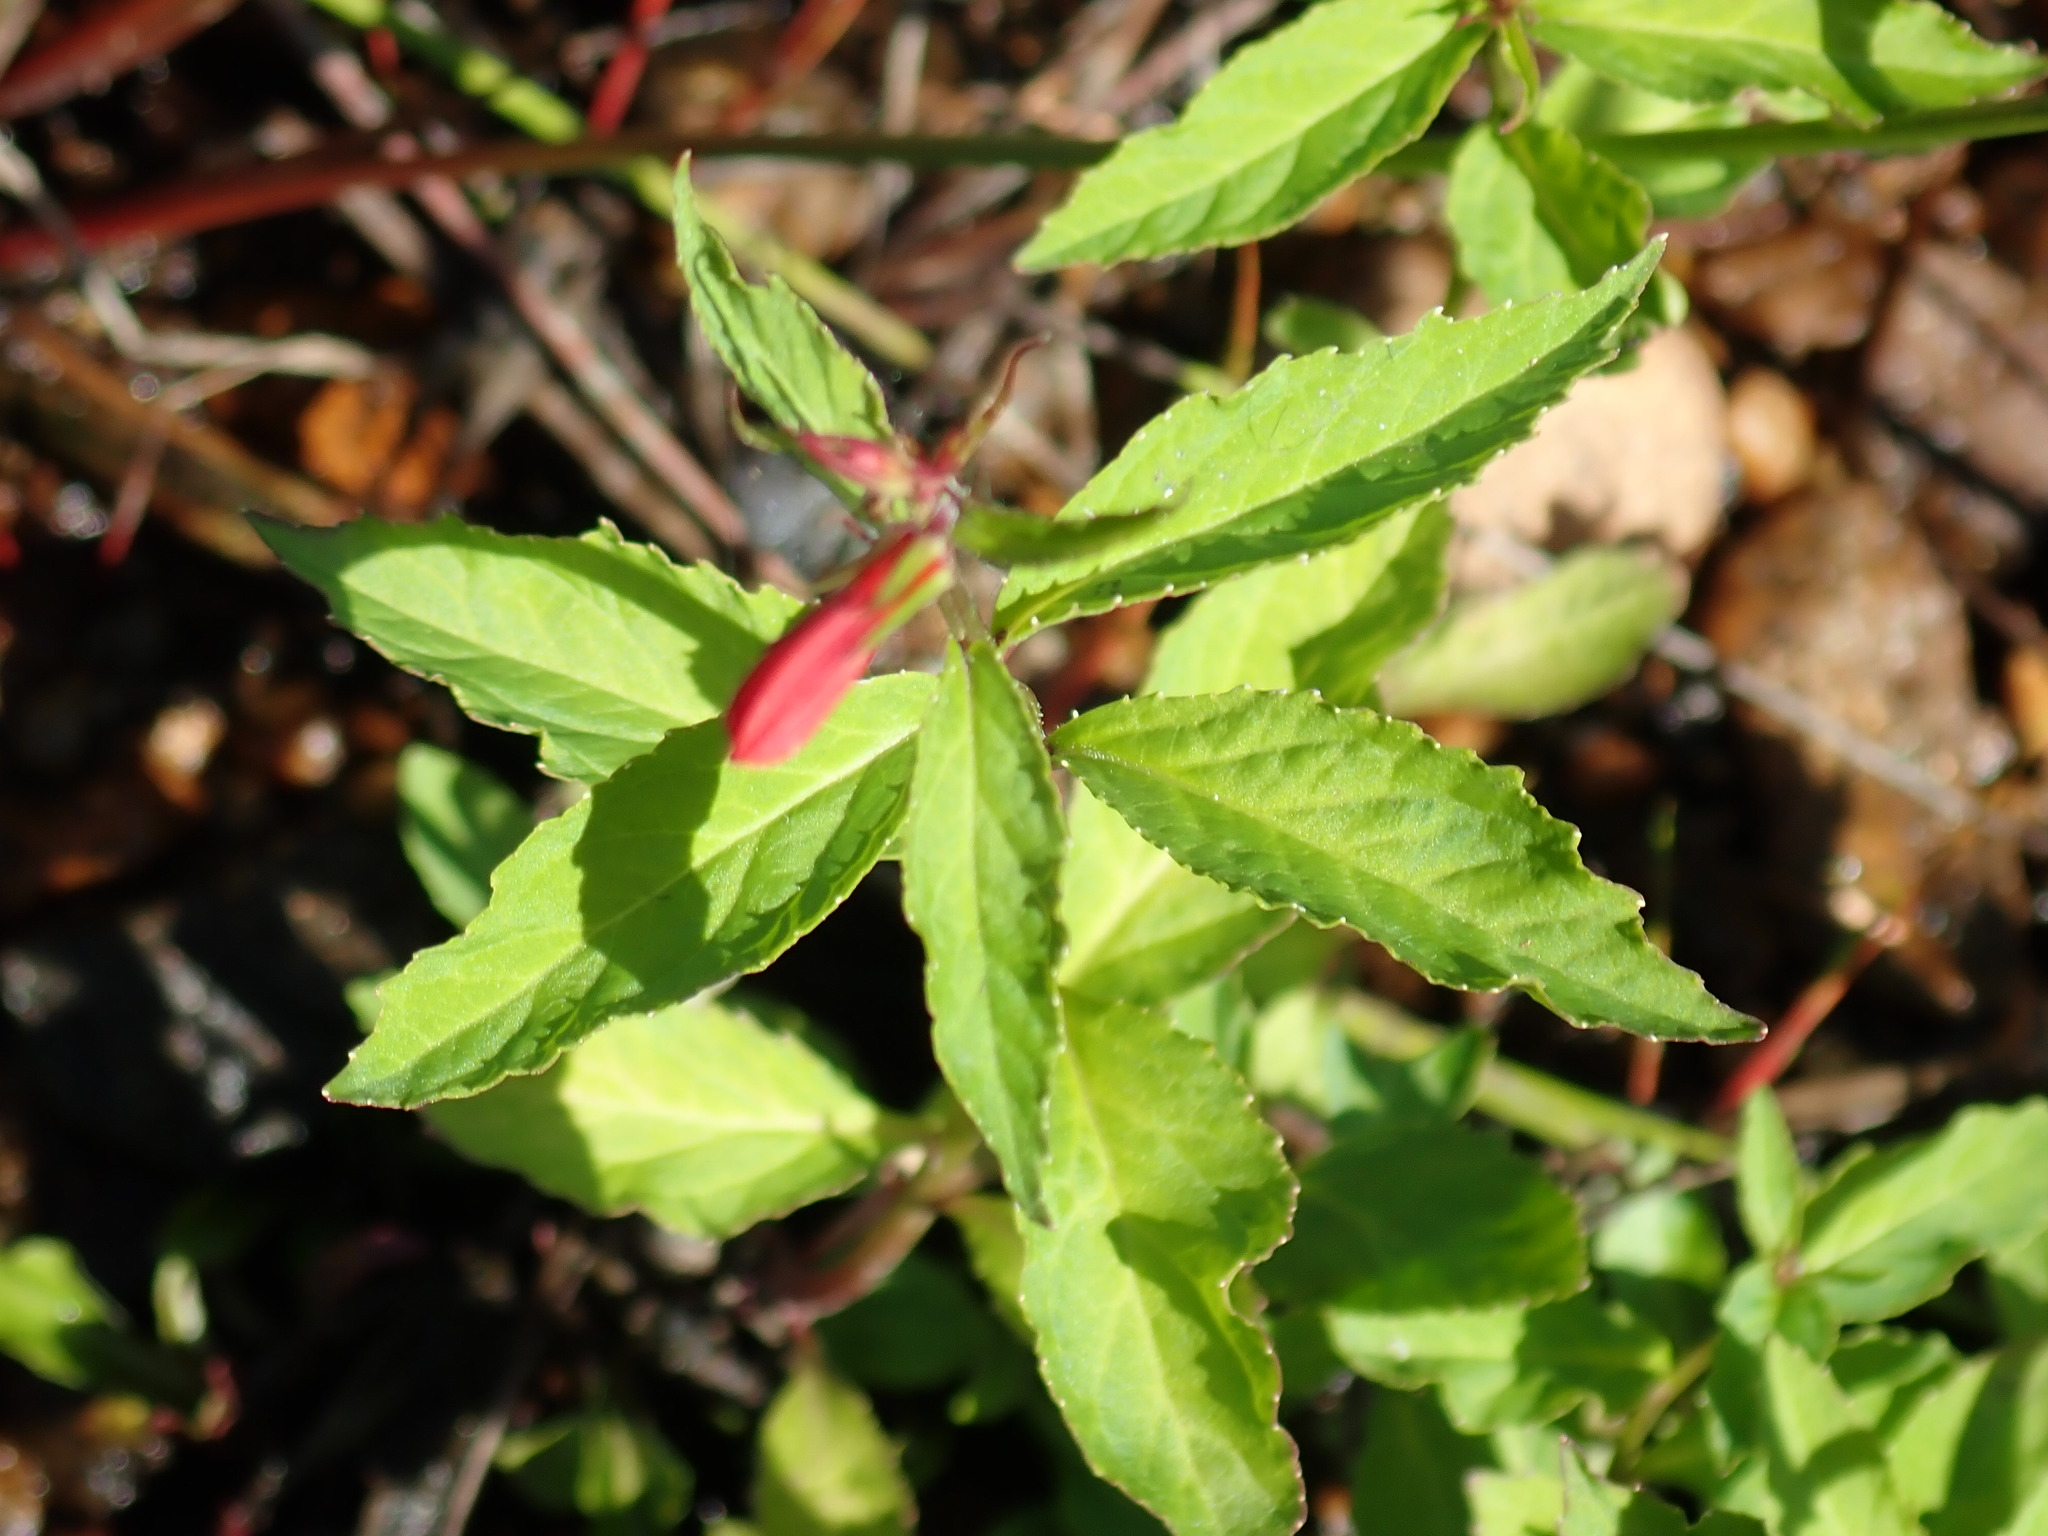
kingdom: Plantae
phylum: Tracheophyta
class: Magnoliopsida
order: Asterales
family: Campanulaceae
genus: Lobelia
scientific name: Lobelia cardinalis
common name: Cardinal flower
